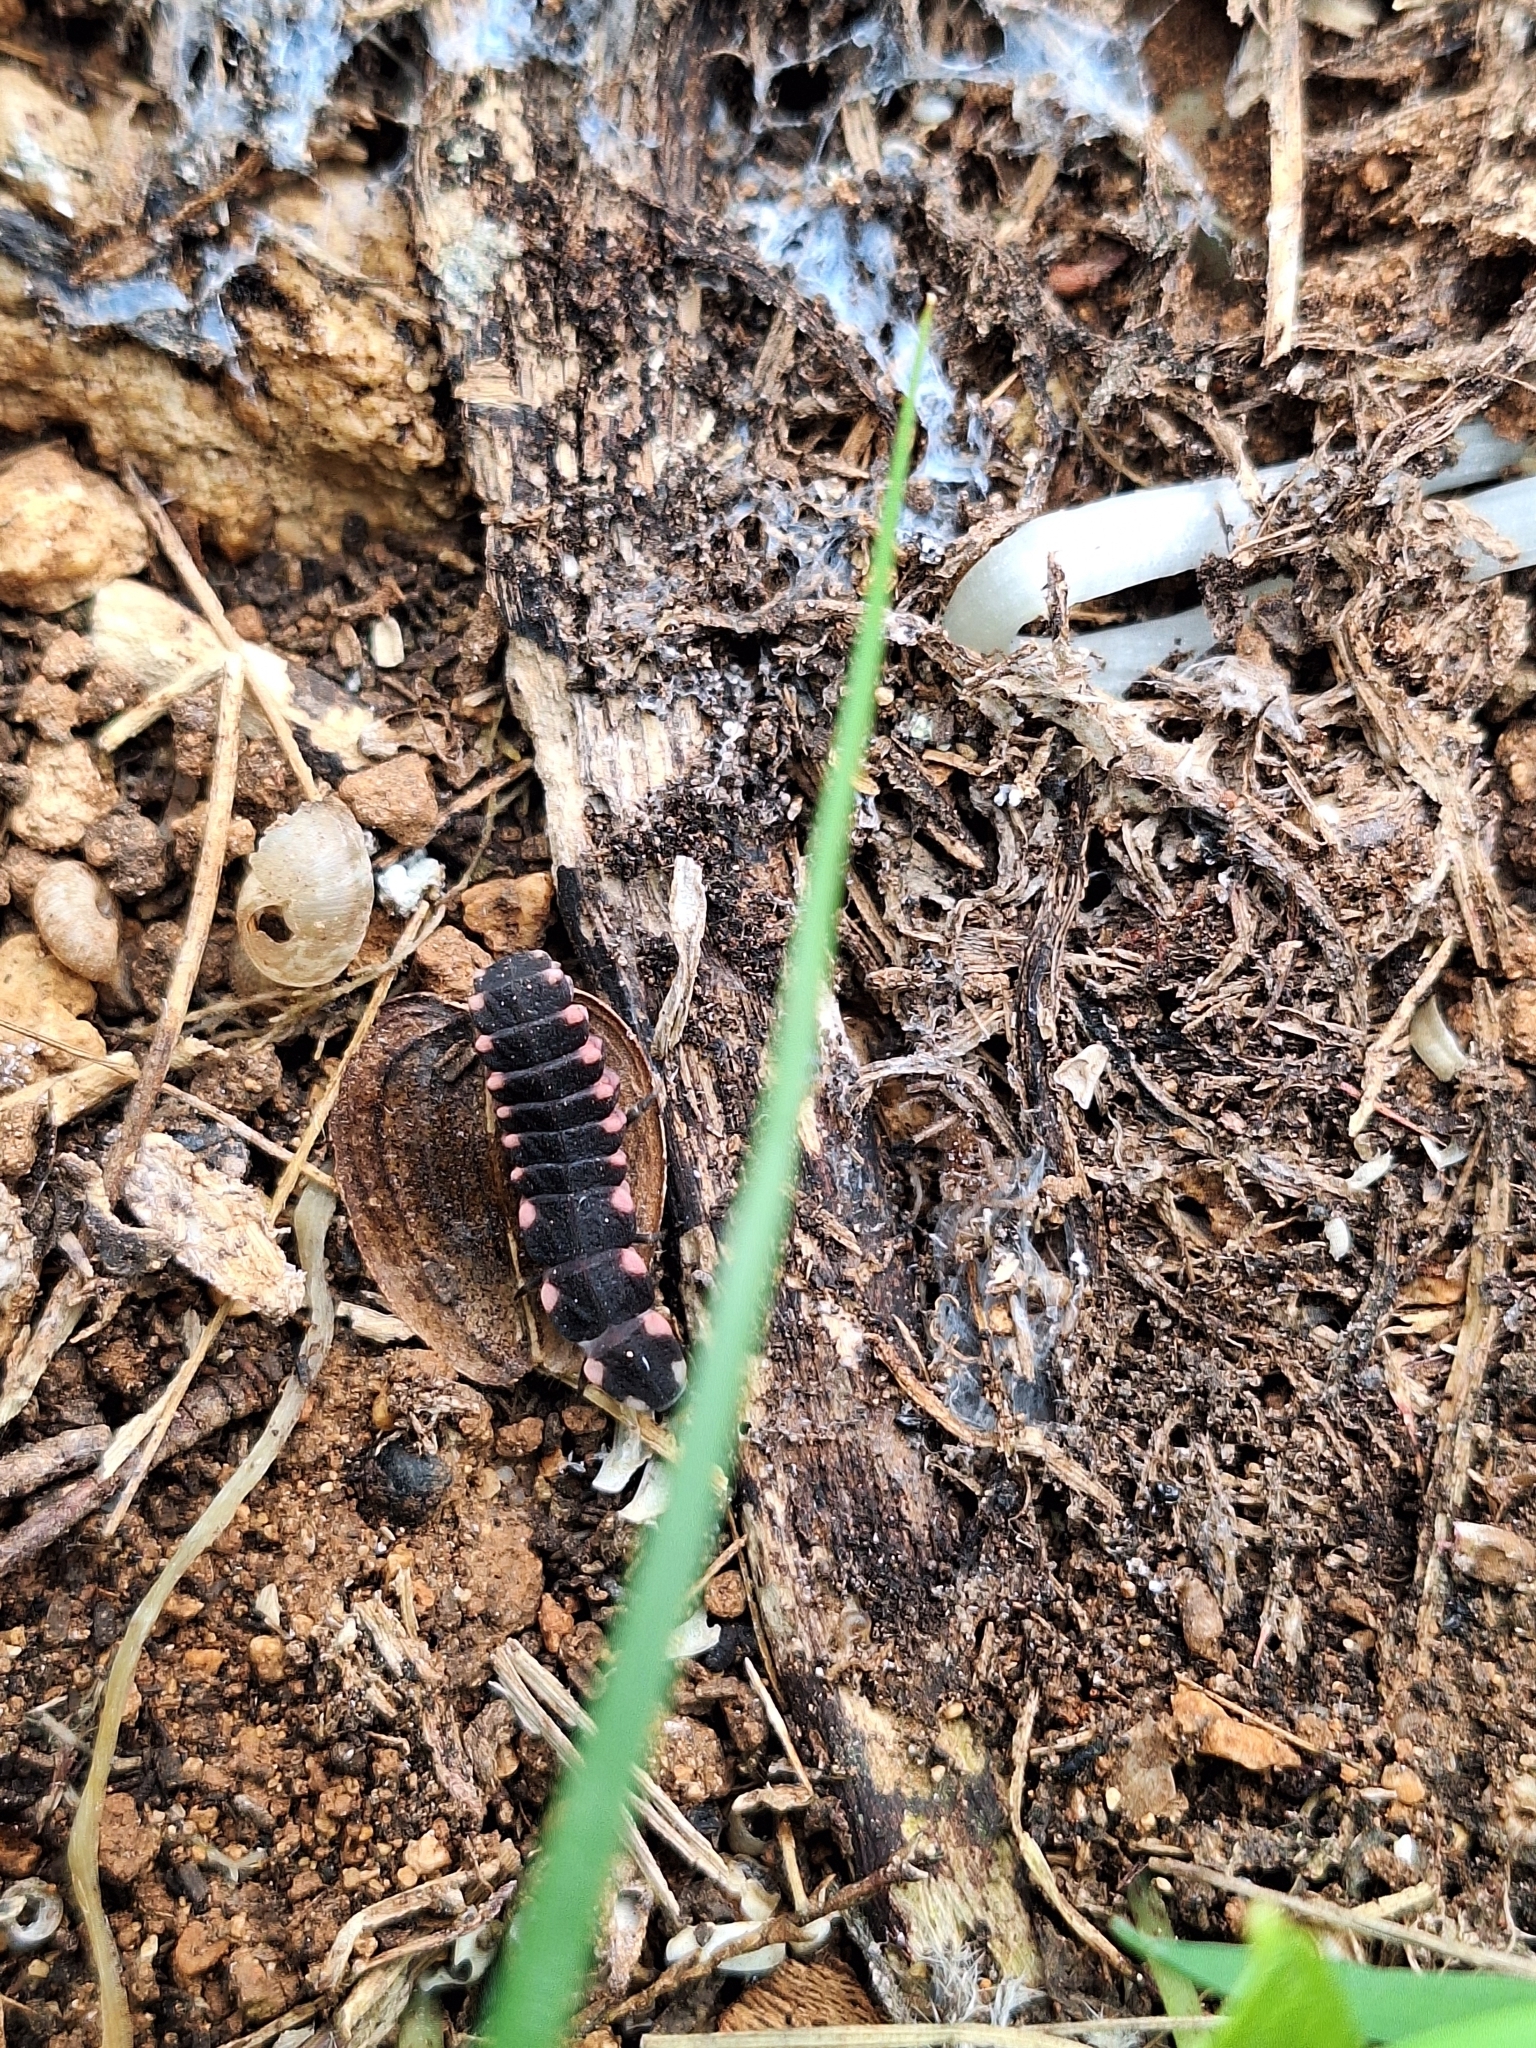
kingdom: Animalia
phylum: Arthropoda
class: Insecta
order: Coleoptera
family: Lampyridae
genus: Lampyris
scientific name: Lampyris pallida
